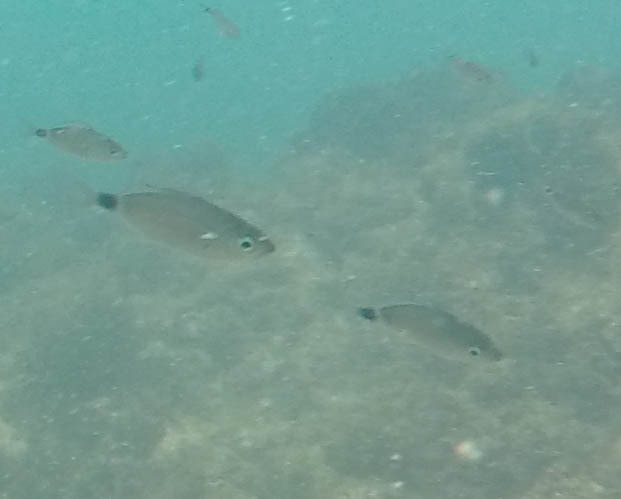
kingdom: Animalia
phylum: Chordata
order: Perciformes
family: Sparidae
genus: Oblada
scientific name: Oblada melanura
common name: Saddled seabream
